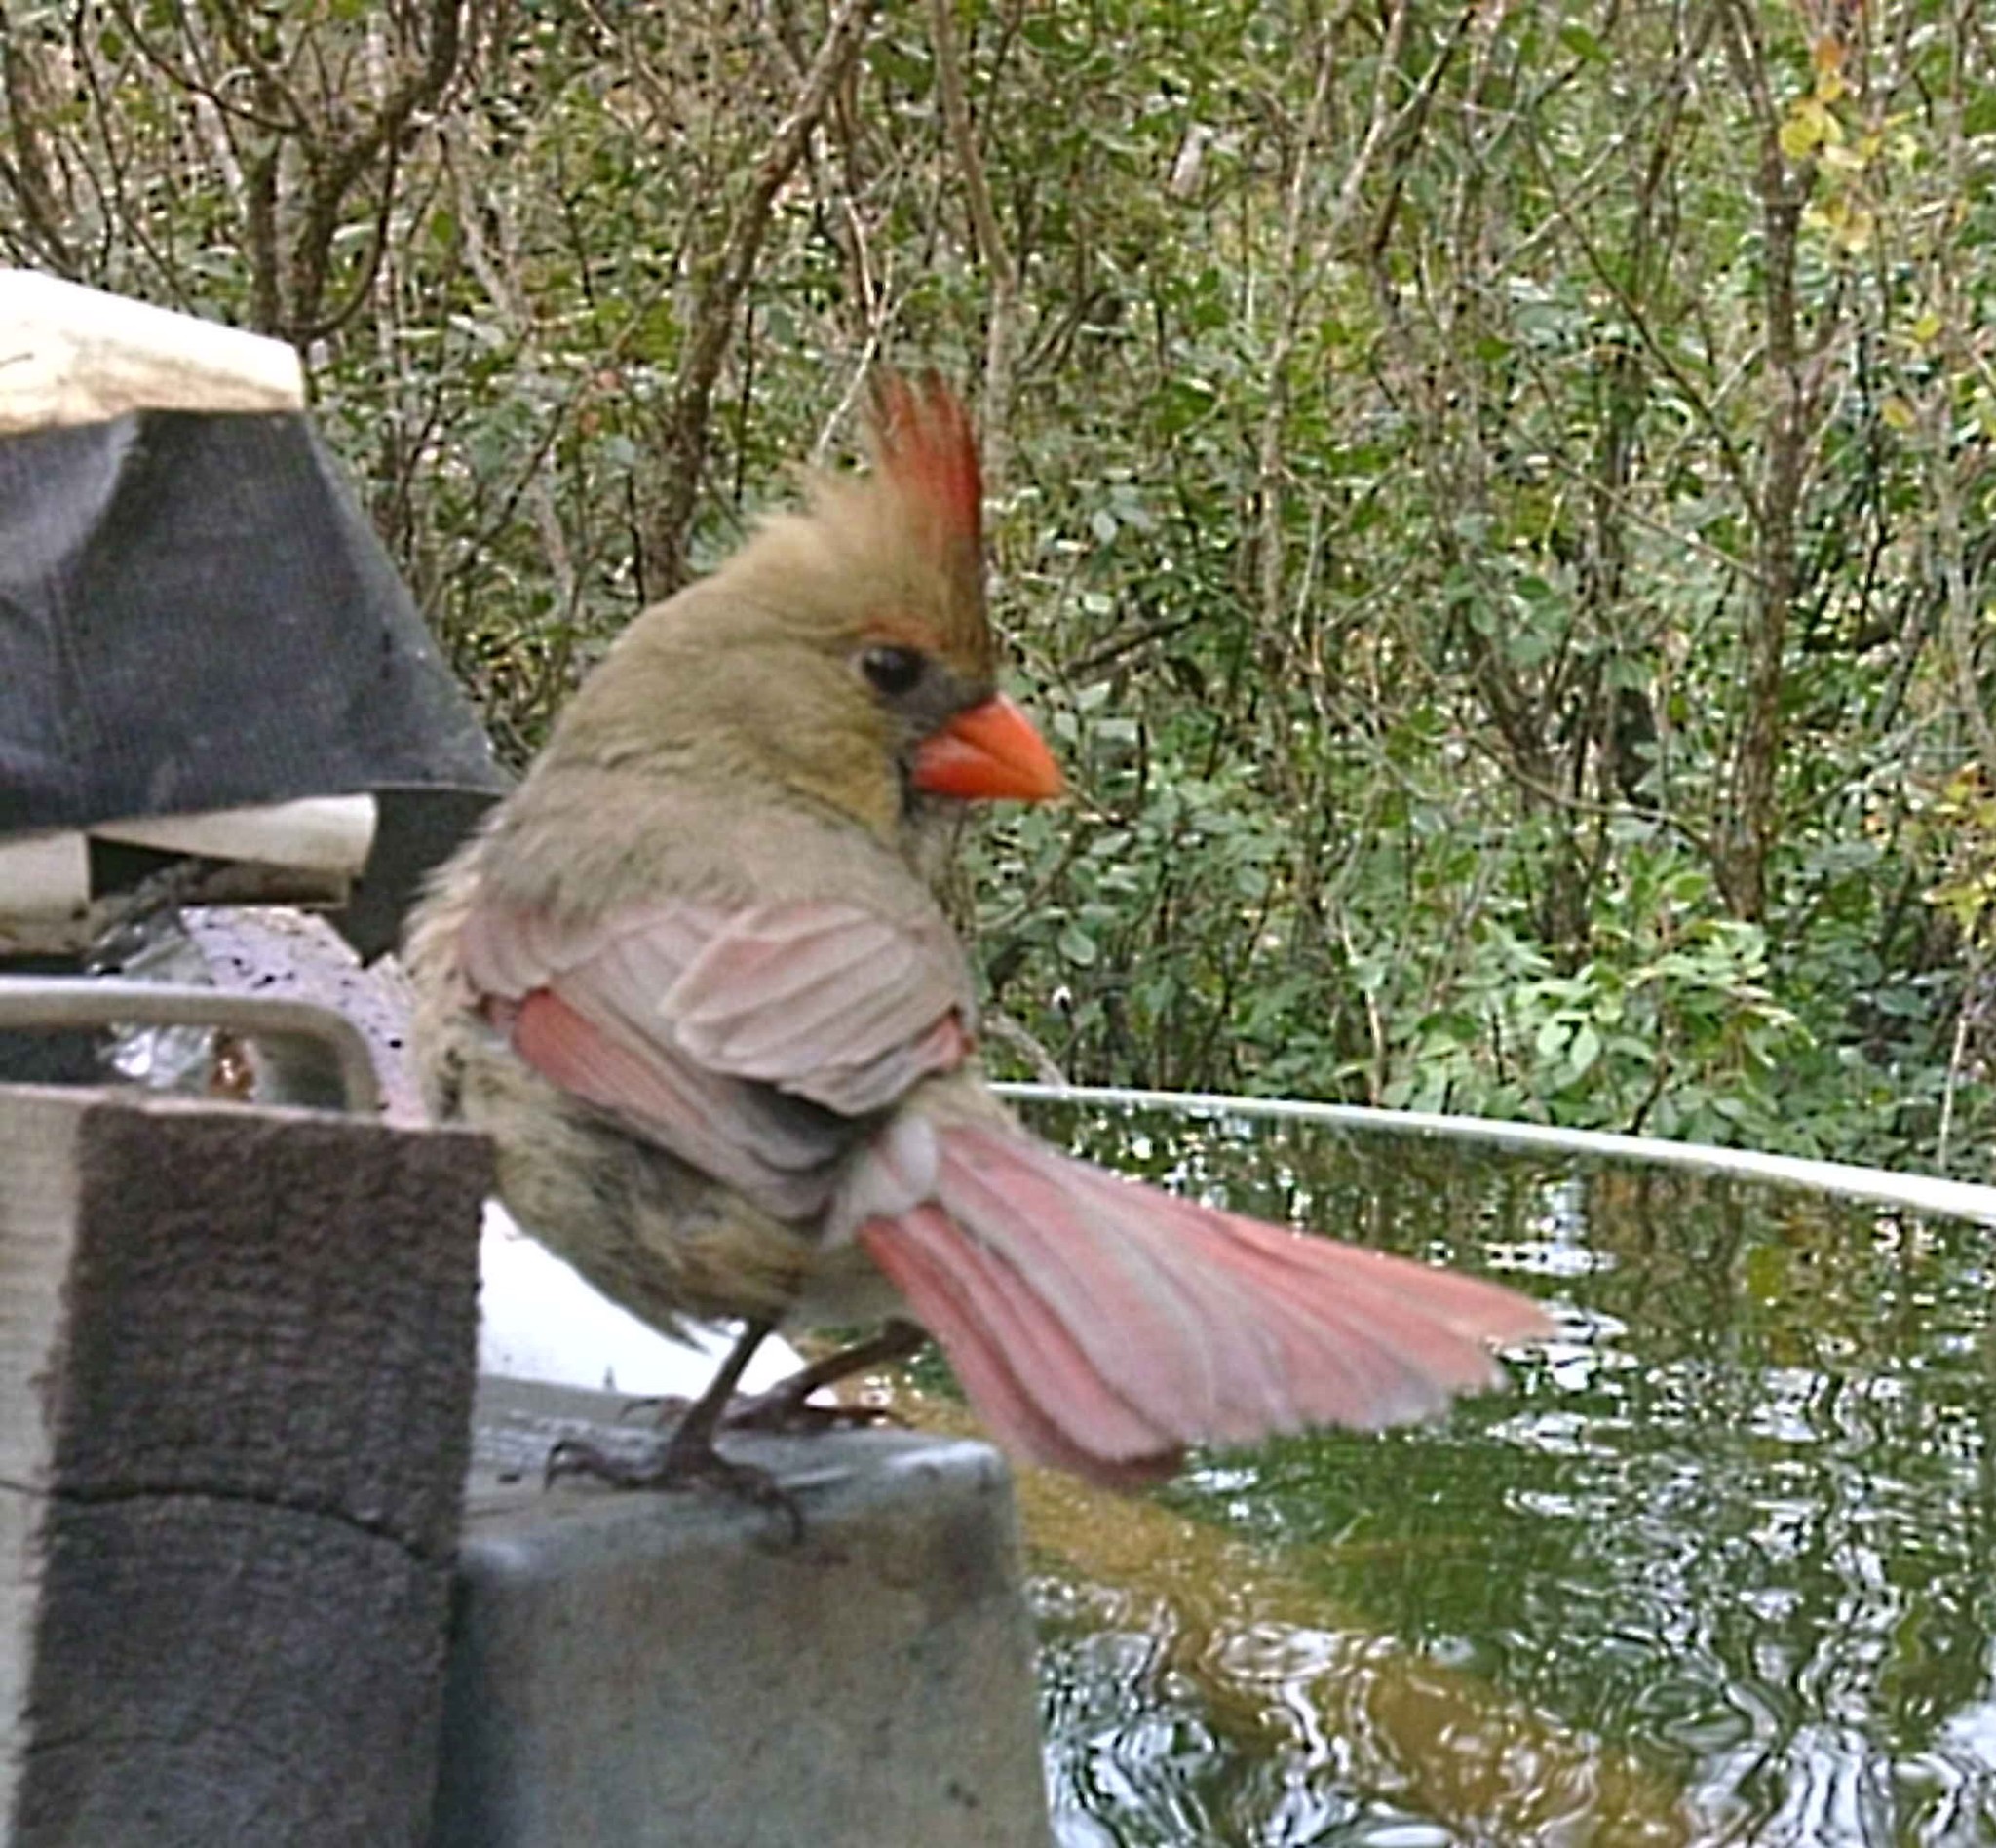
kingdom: Animalia
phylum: Chordata
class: Aves
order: Passeriformes
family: Cardinalidae
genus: Cardinalis
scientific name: Cardinalis cardinalis
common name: Northern cardinal
